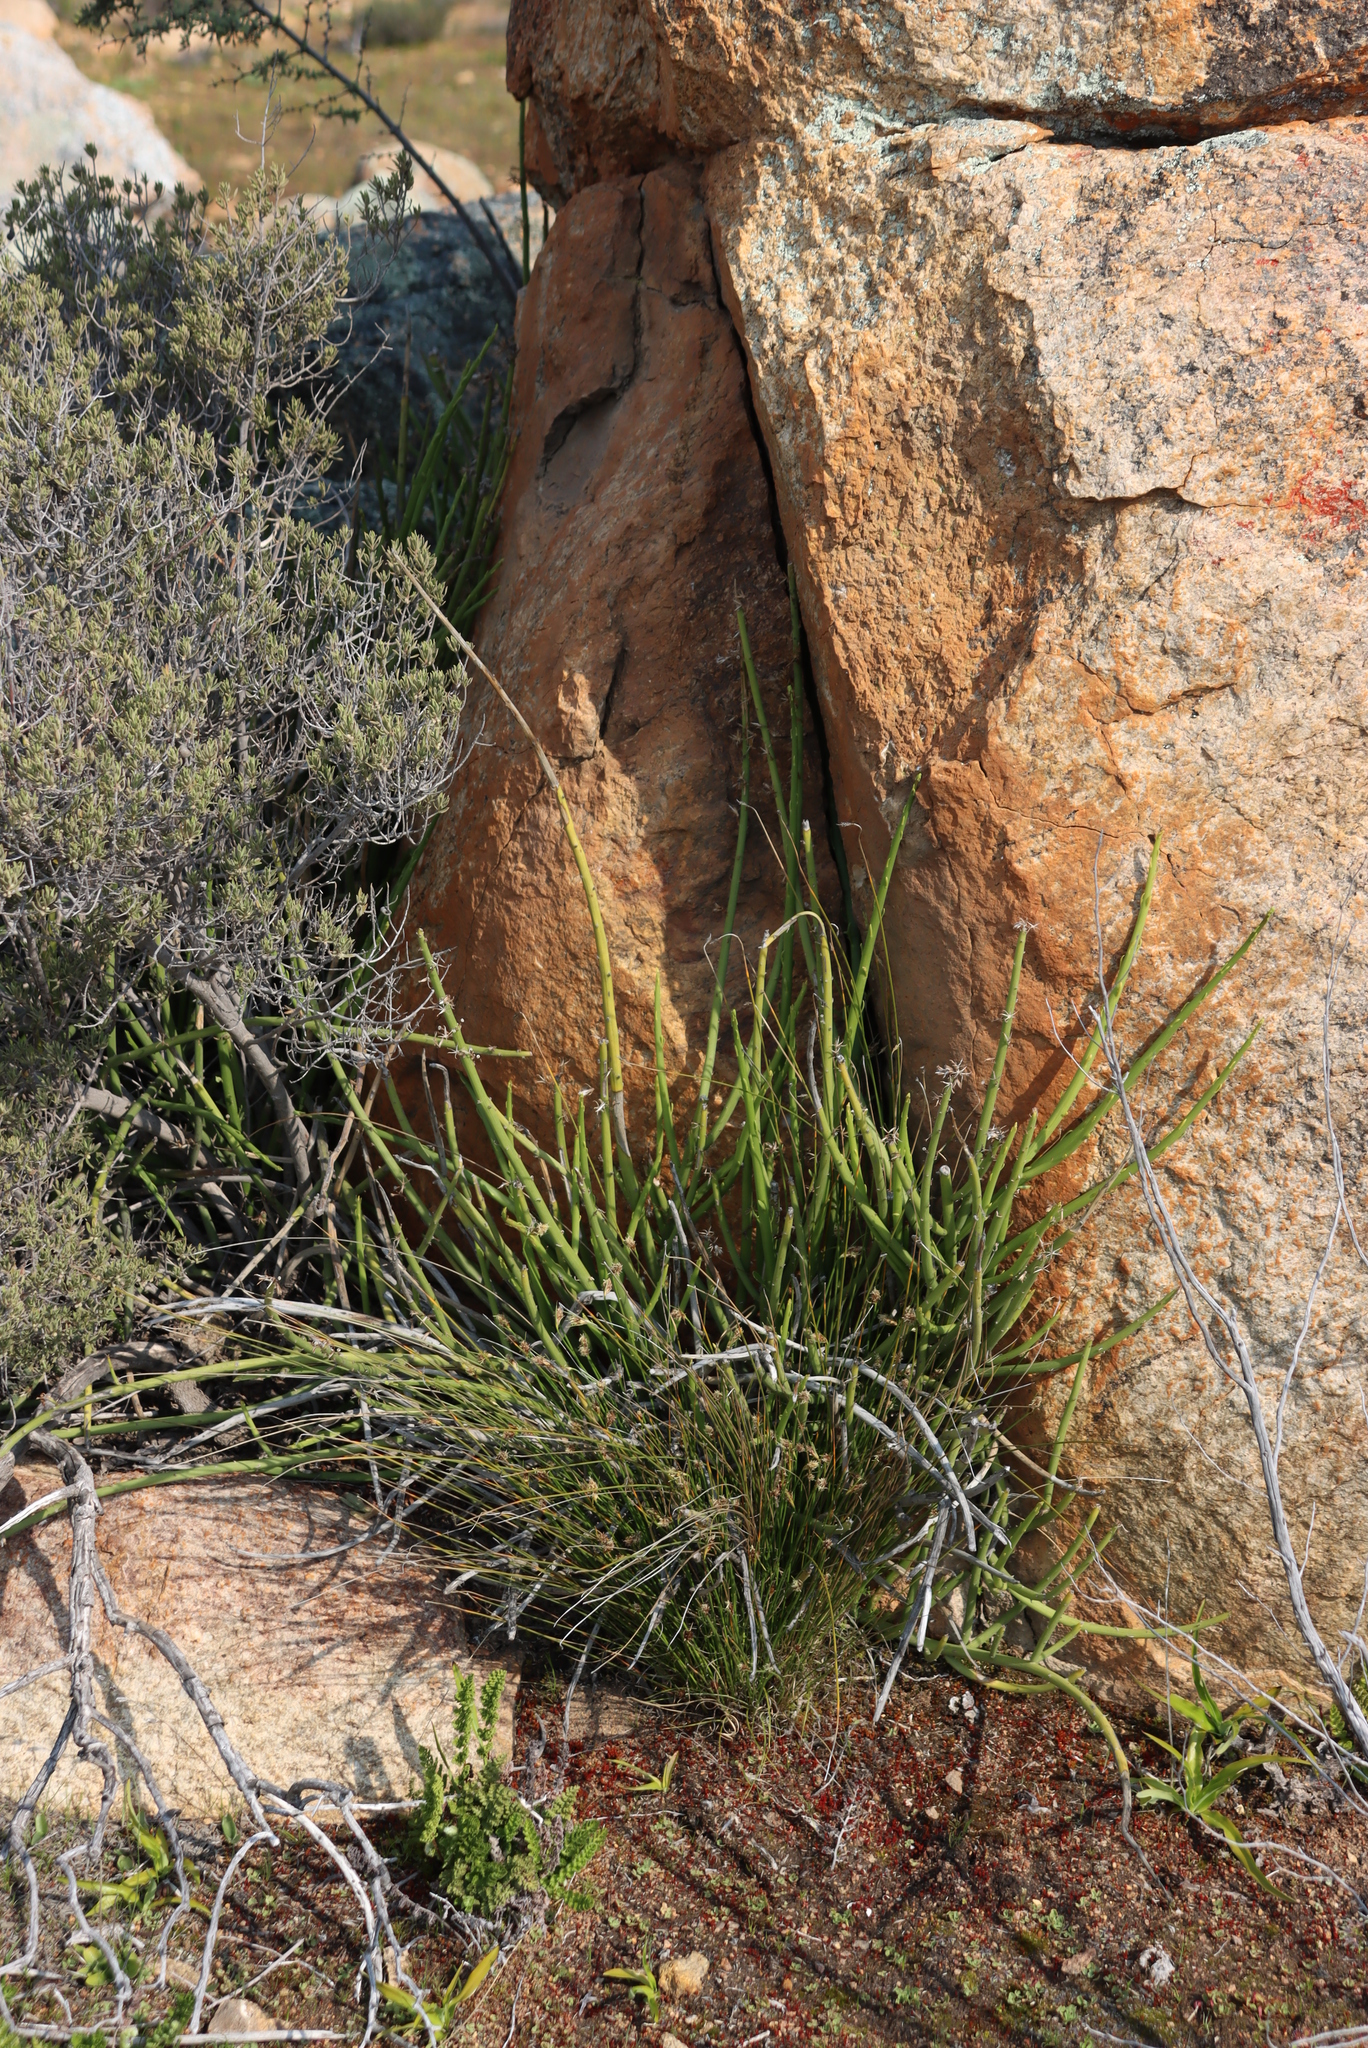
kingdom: Plantae
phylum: Tracheophyta
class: Magnoliopsida
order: Asterales
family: Asteraceae
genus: Senecio
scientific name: Senecio junceus
